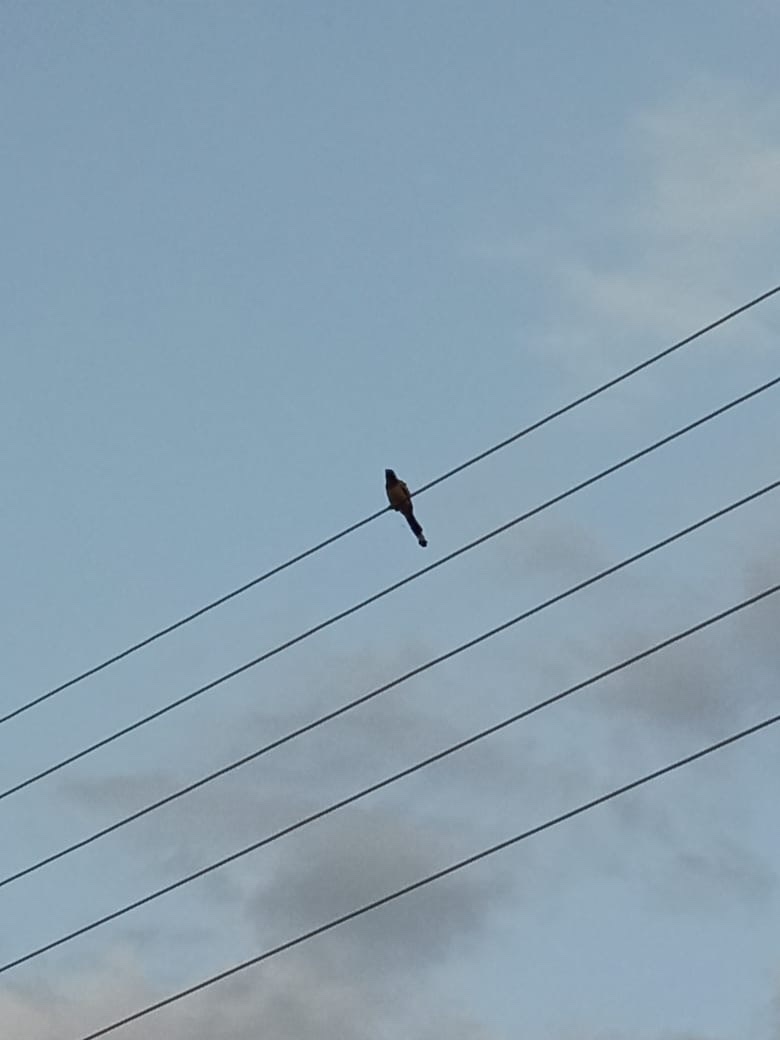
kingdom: Animalia
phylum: Chordata
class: Aves
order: Passeriformes
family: Corvidae
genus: Dendrocitta
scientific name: Dendrocitta vagabunda
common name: Rufous treepie
